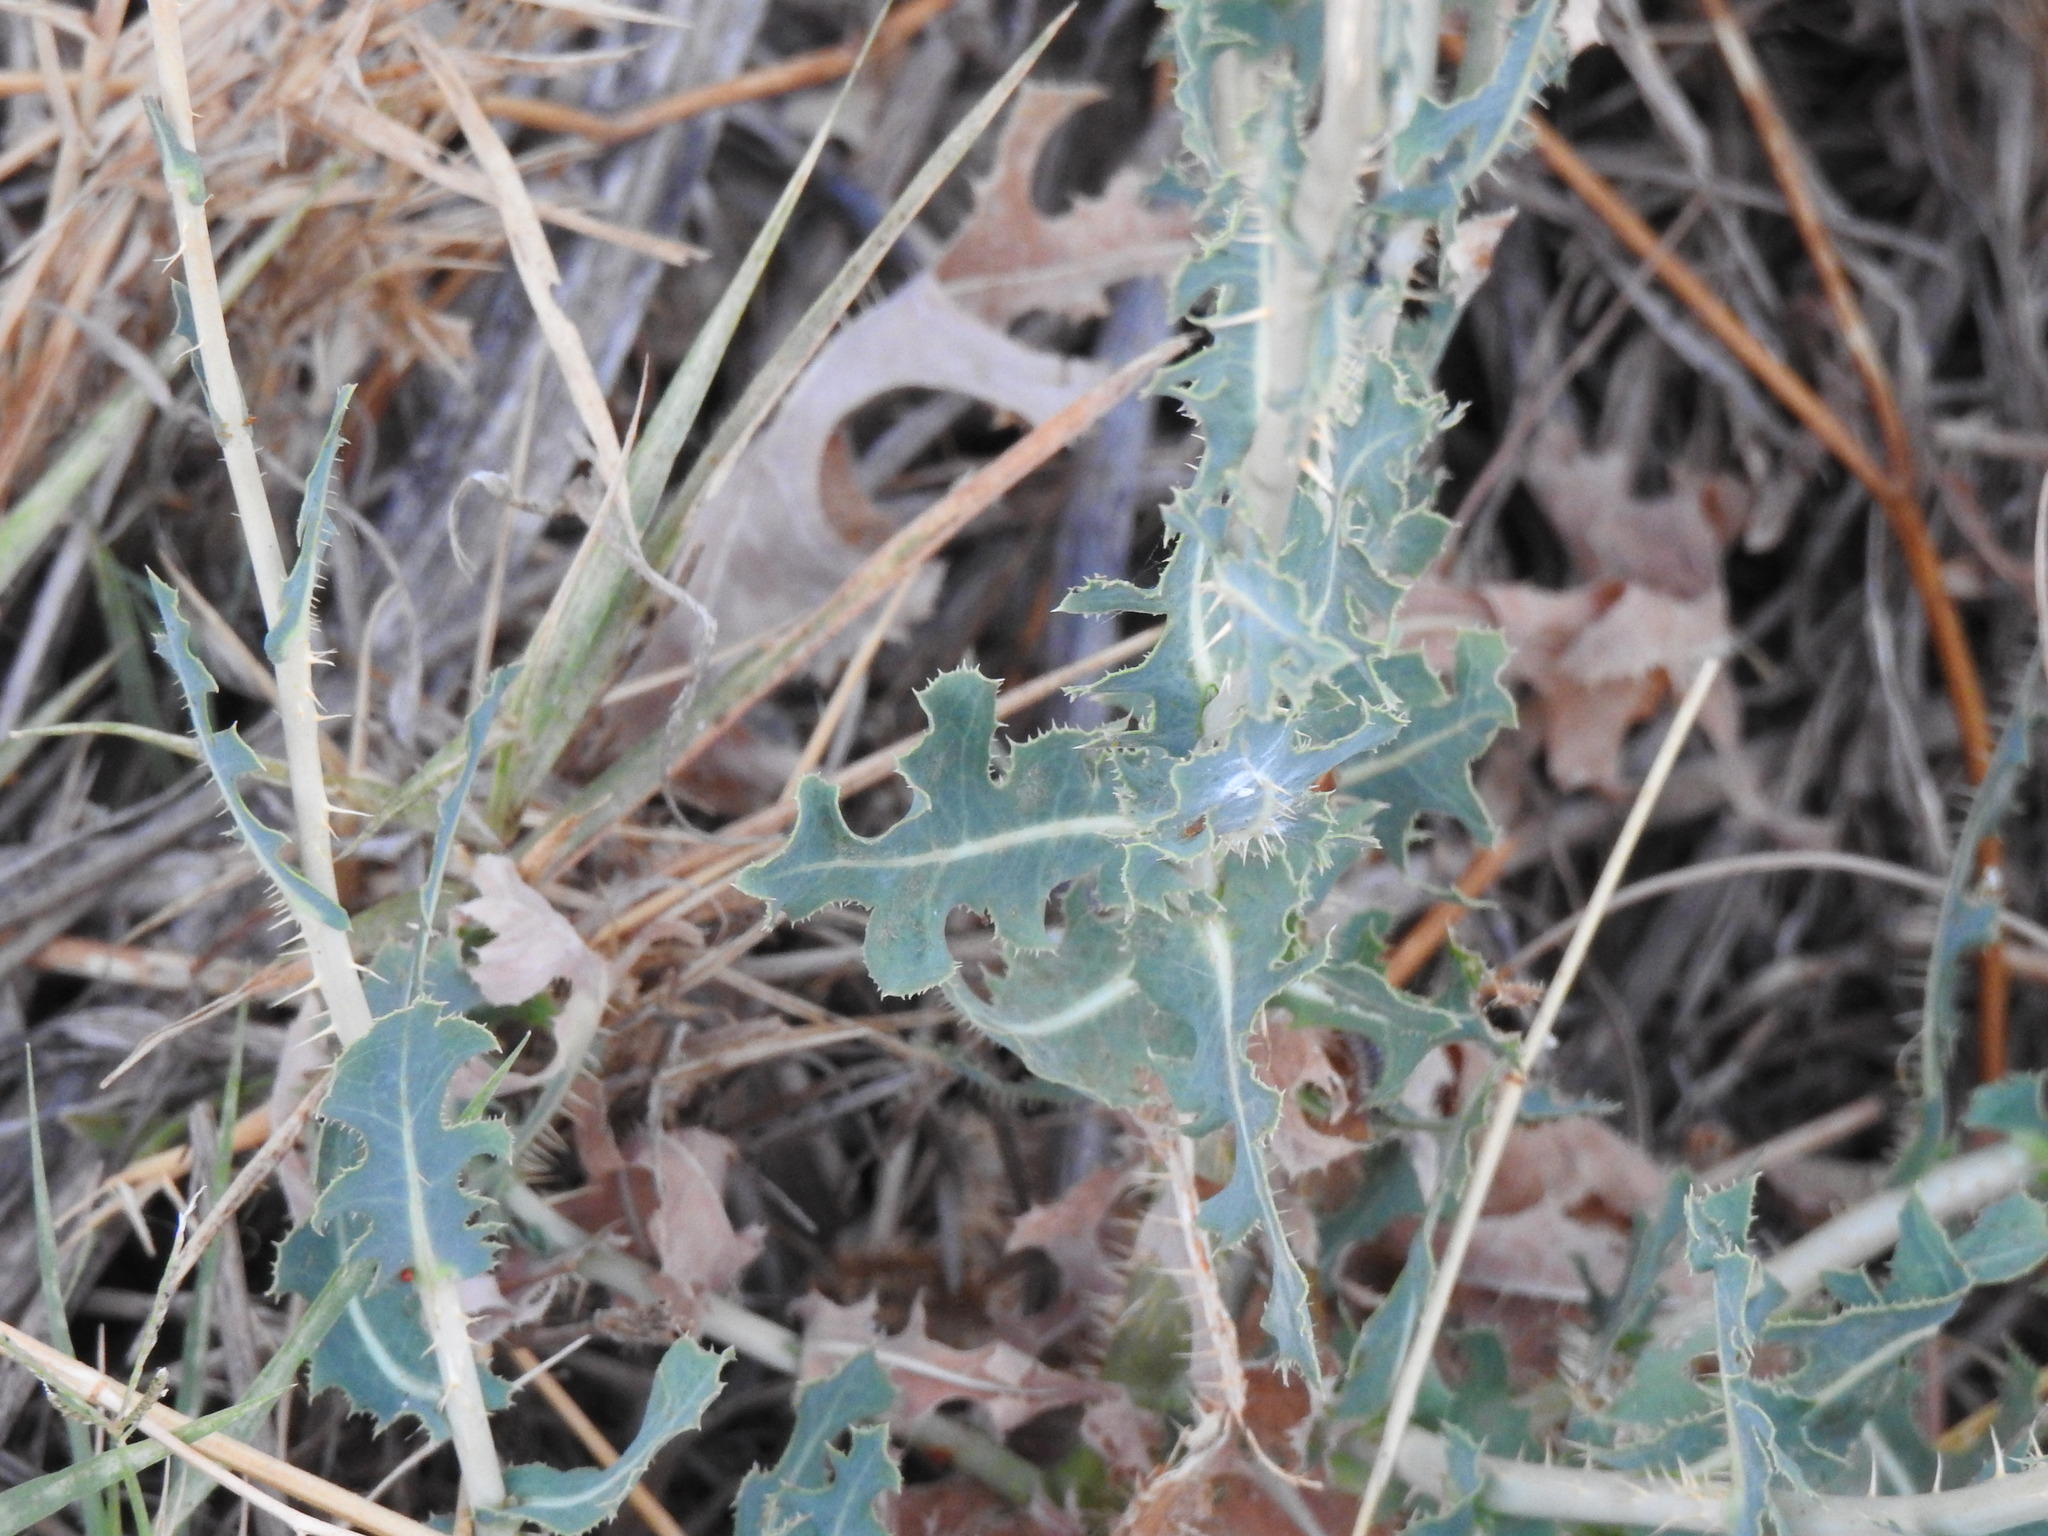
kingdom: Plantae
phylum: Tracheophyta
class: Magnoliopsida
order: Asterales
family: Asteraceae
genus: Lactuca
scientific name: Lactuca serriola
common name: Prickly lettuce
